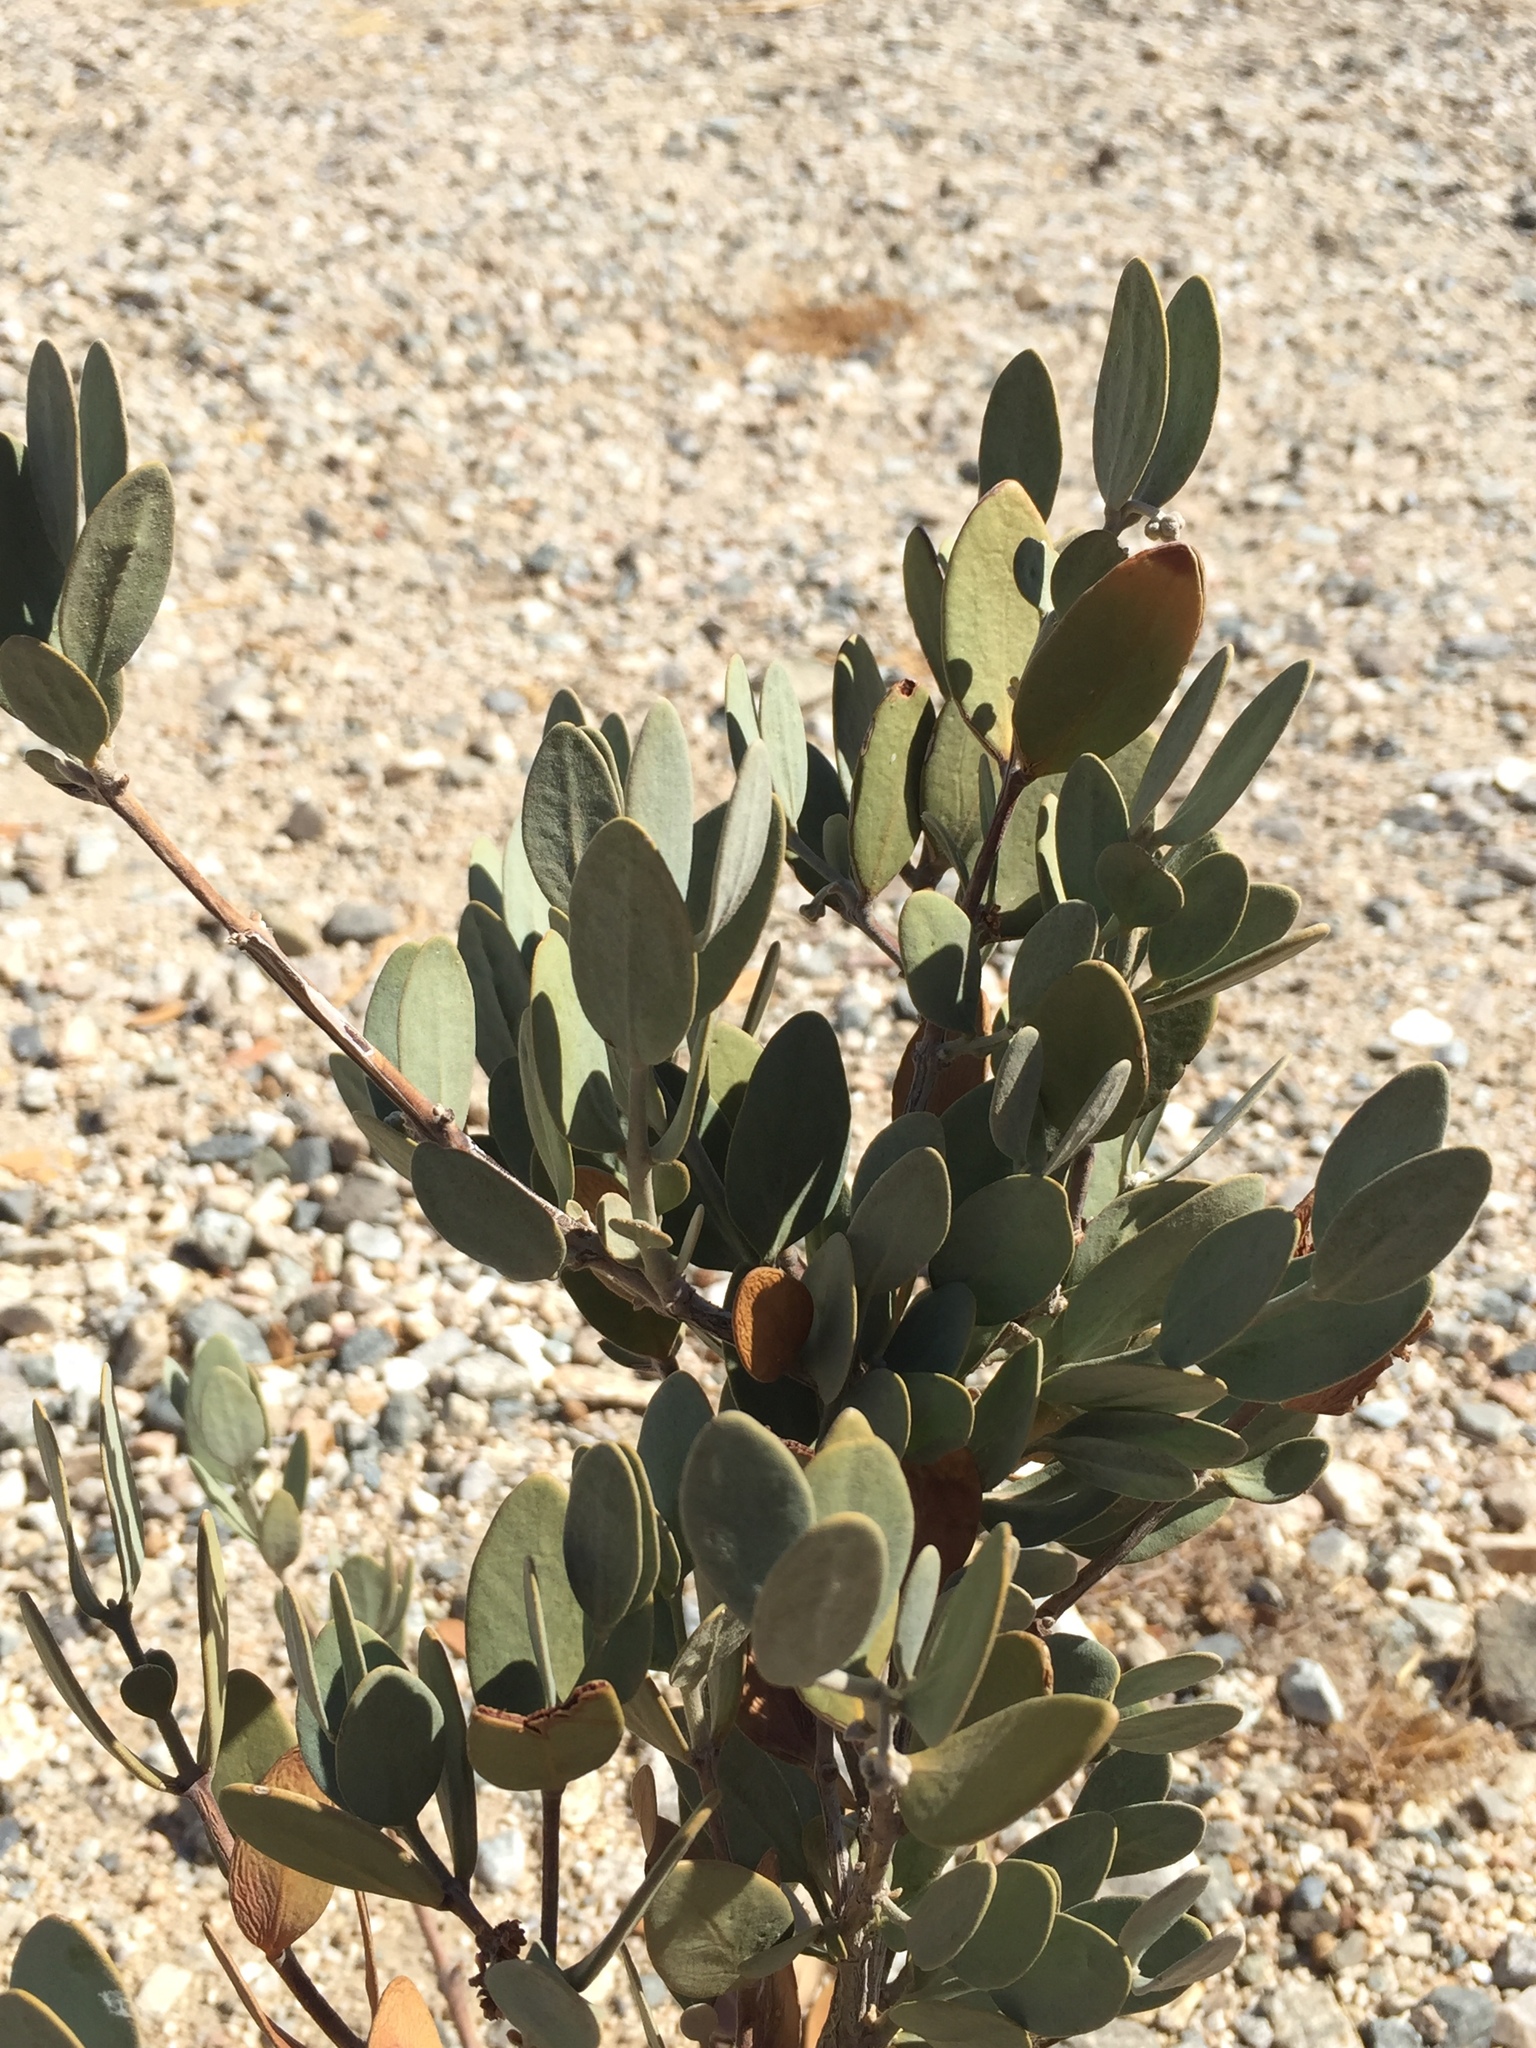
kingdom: Plantae
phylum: Tracheophyta
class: Magnoliopsida
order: Caryophyllales
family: Simmondsiaceae
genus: Simmondsia
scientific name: Simmondsia chinensis
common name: Jojoba
